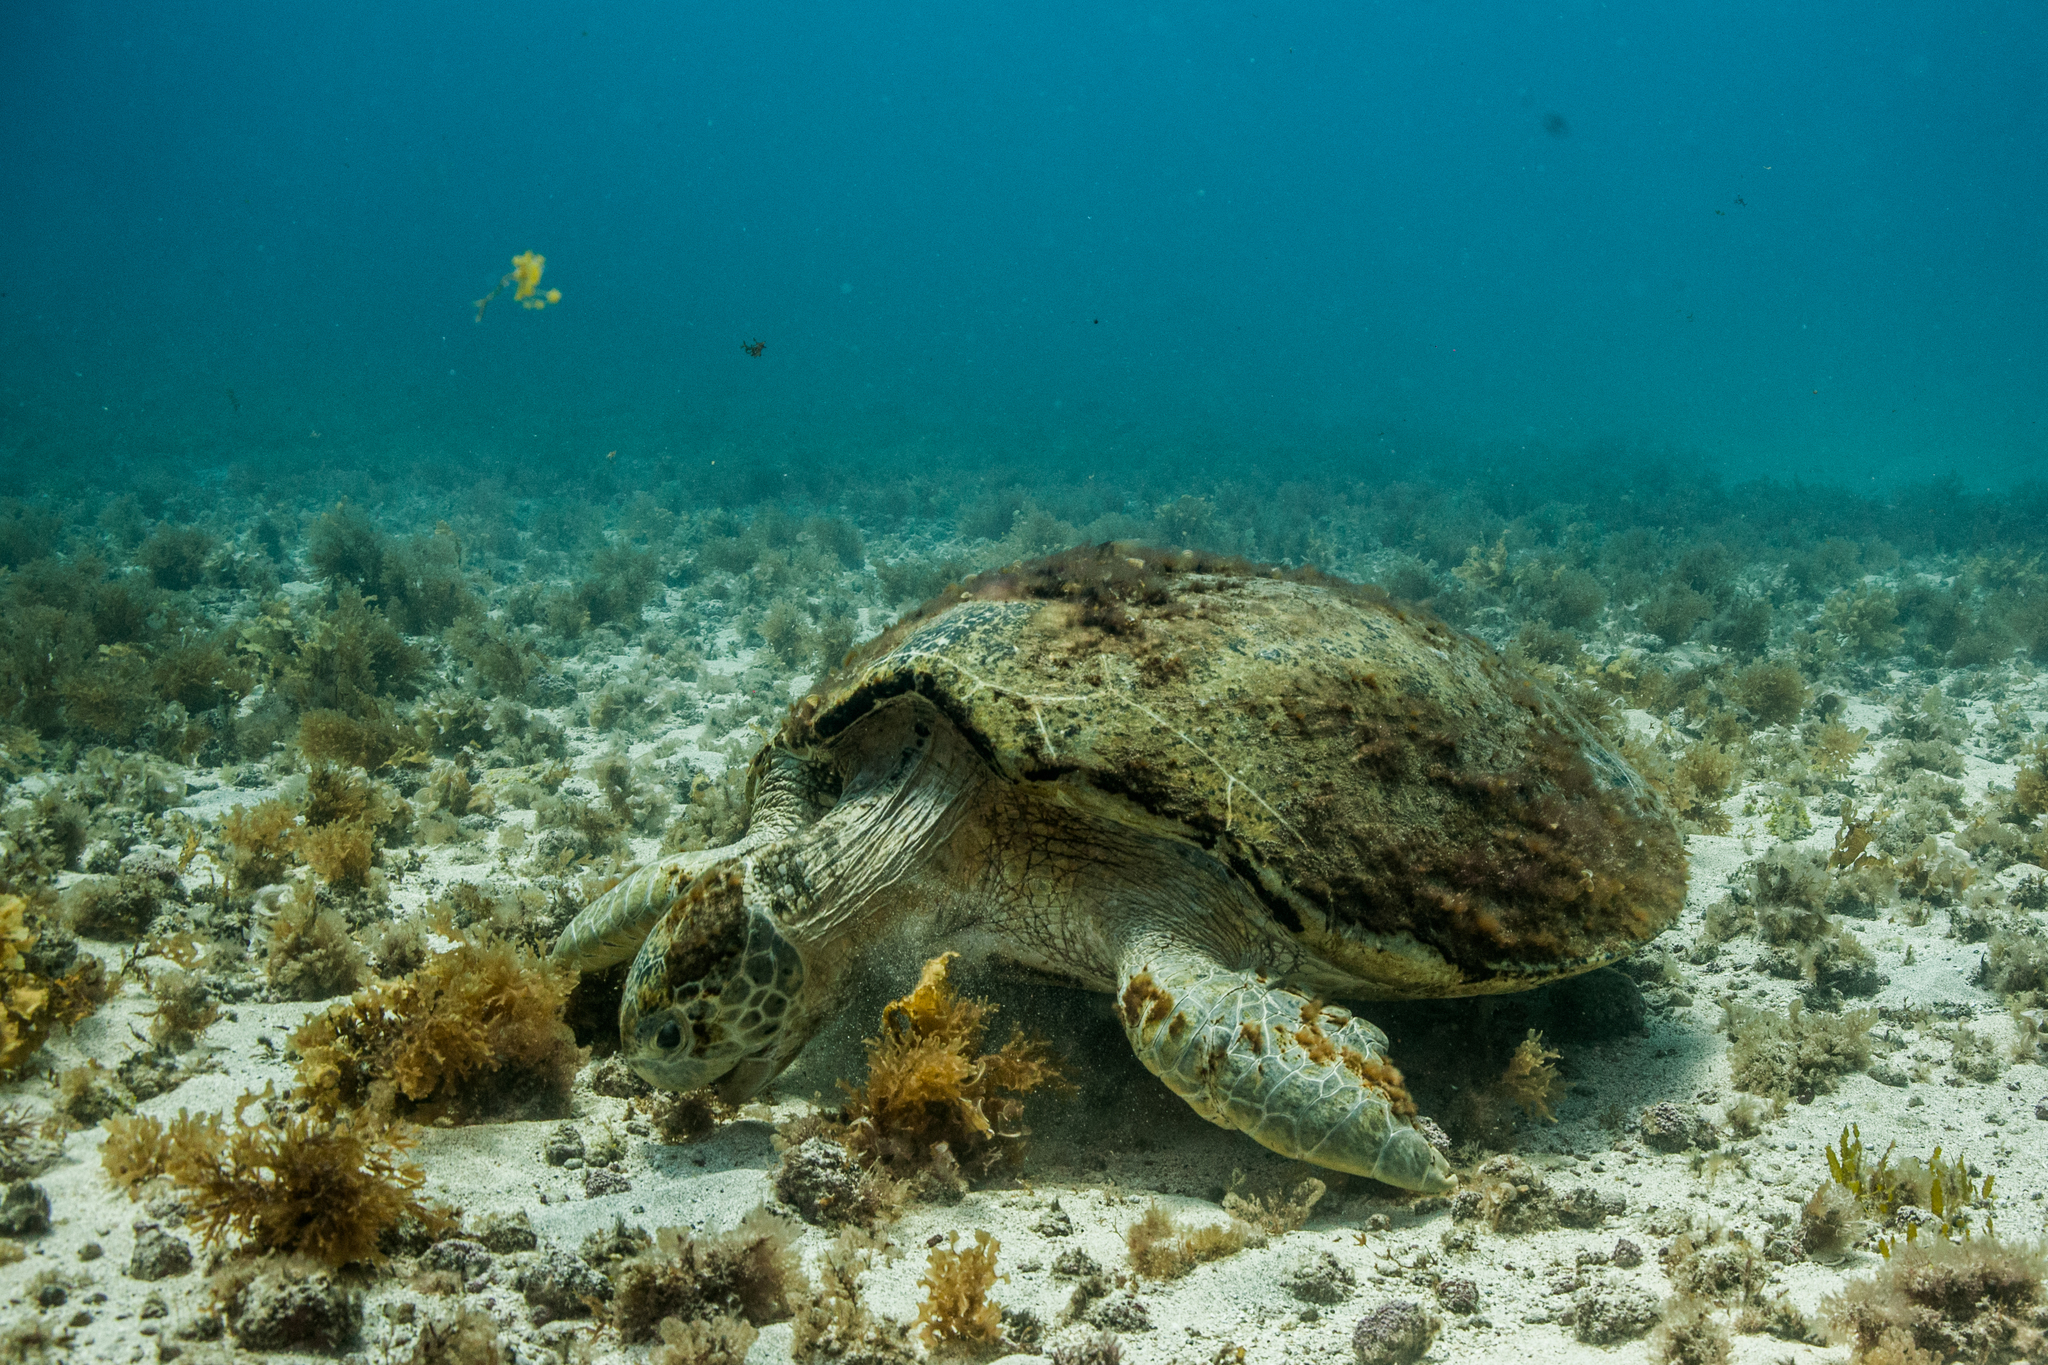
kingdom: Animalia
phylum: Chordata
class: Testudines
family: Cheloniidae
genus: Chelonia
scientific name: Chelonia mydas
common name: Green turtle
